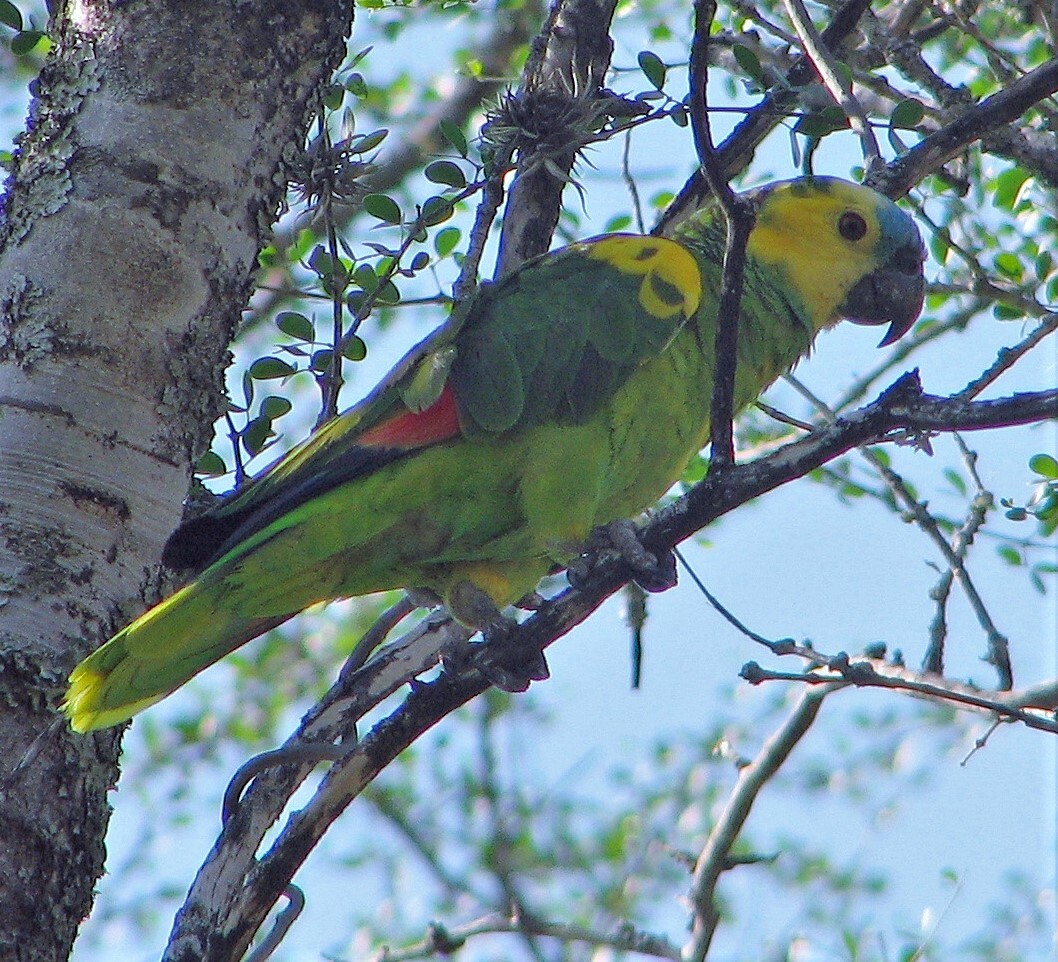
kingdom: Animalia
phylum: Chordata
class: Aves
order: Psittaciformes
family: Psittacidae
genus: Amazona
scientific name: Amazona aestiva
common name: Turquoise-fronted amazon
